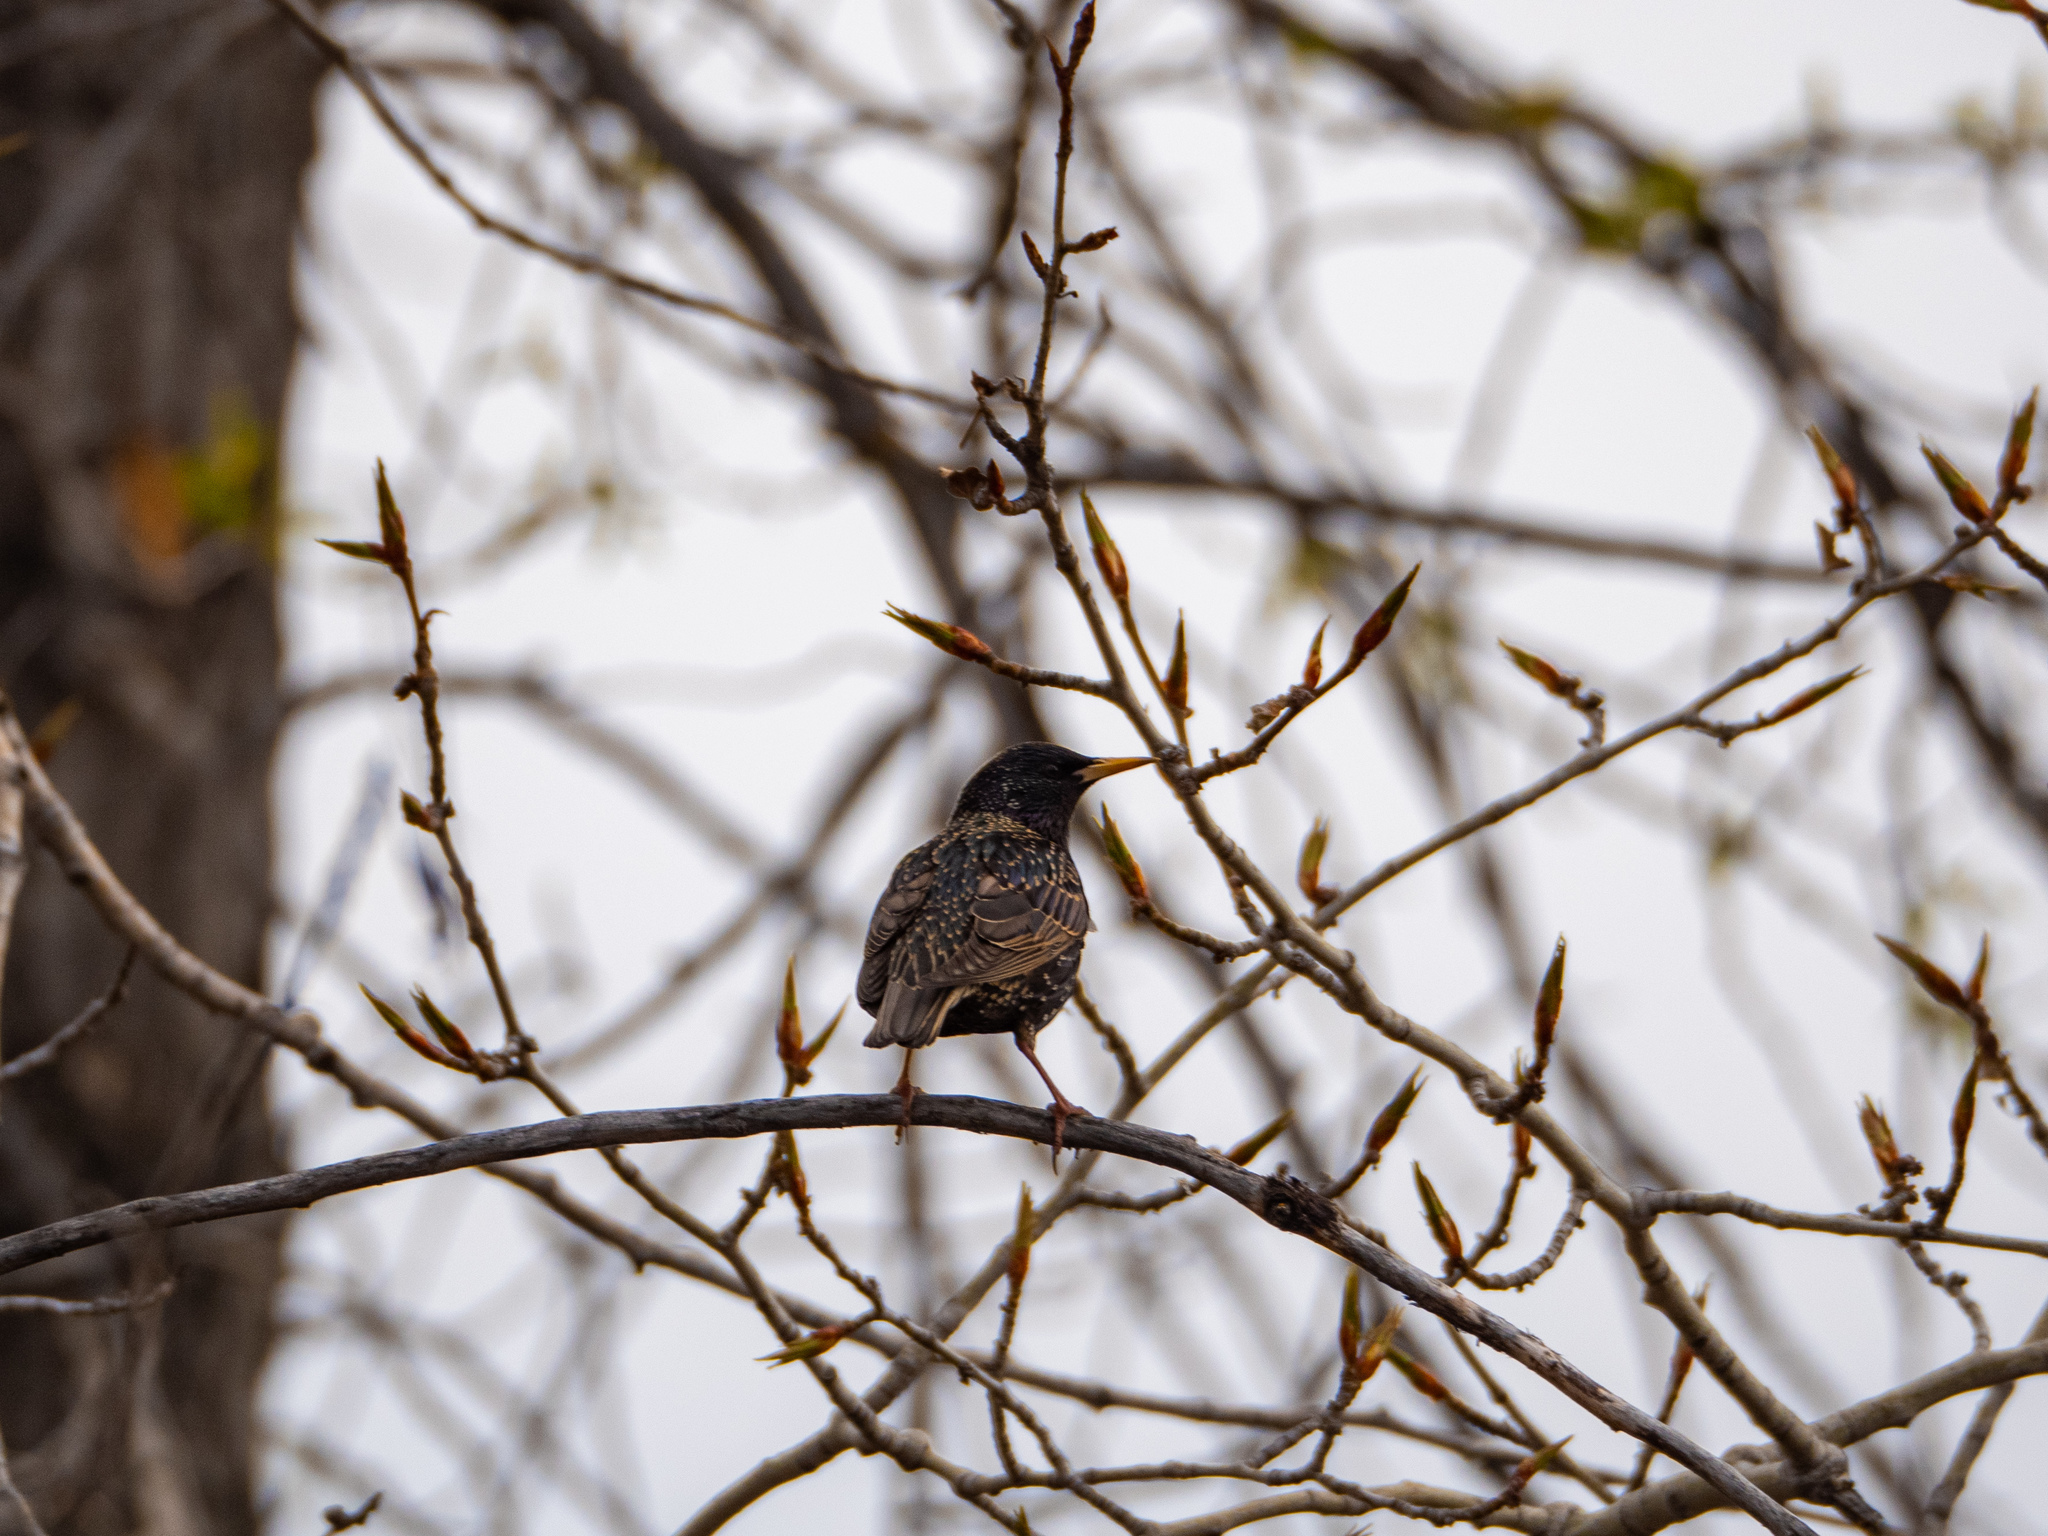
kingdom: Animalia
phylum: Chordata
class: Aves
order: Passeriformes
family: Sturnidae
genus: Sturnus
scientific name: Sturnus vulgaris
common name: Common starling
